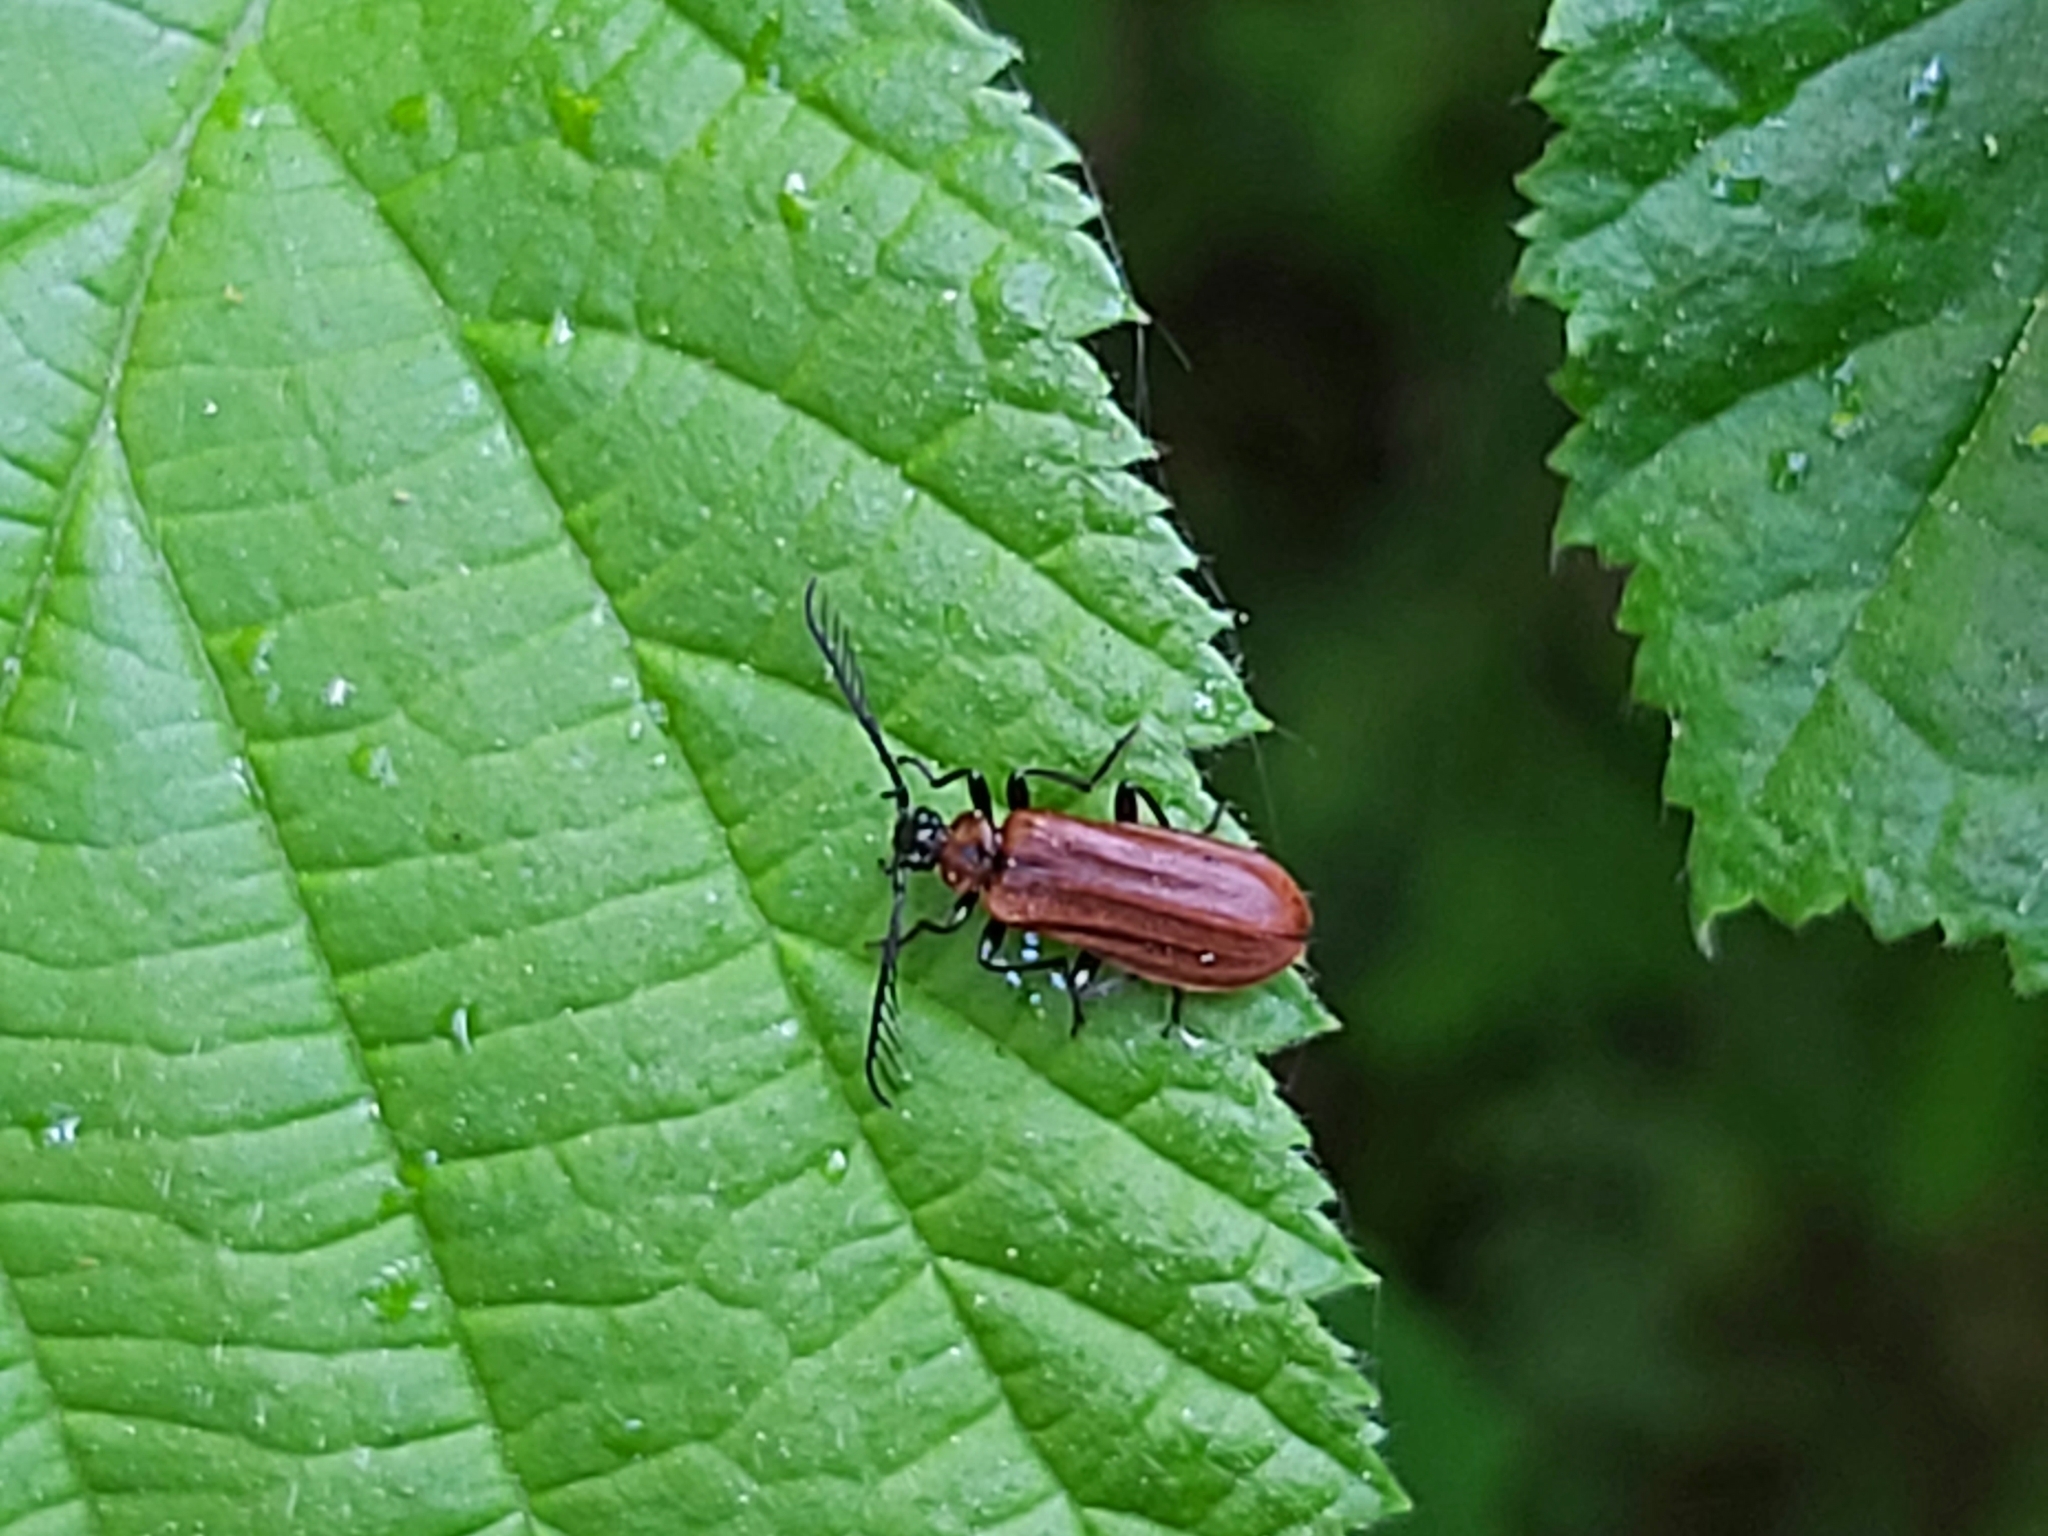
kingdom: Animalia
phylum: Arthropoda
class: Insecta
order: Coleoptera
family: Pyrochroidae
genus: Schizotus
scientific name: Schizotus pectinicornis
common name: Scarce cardinal beetle
